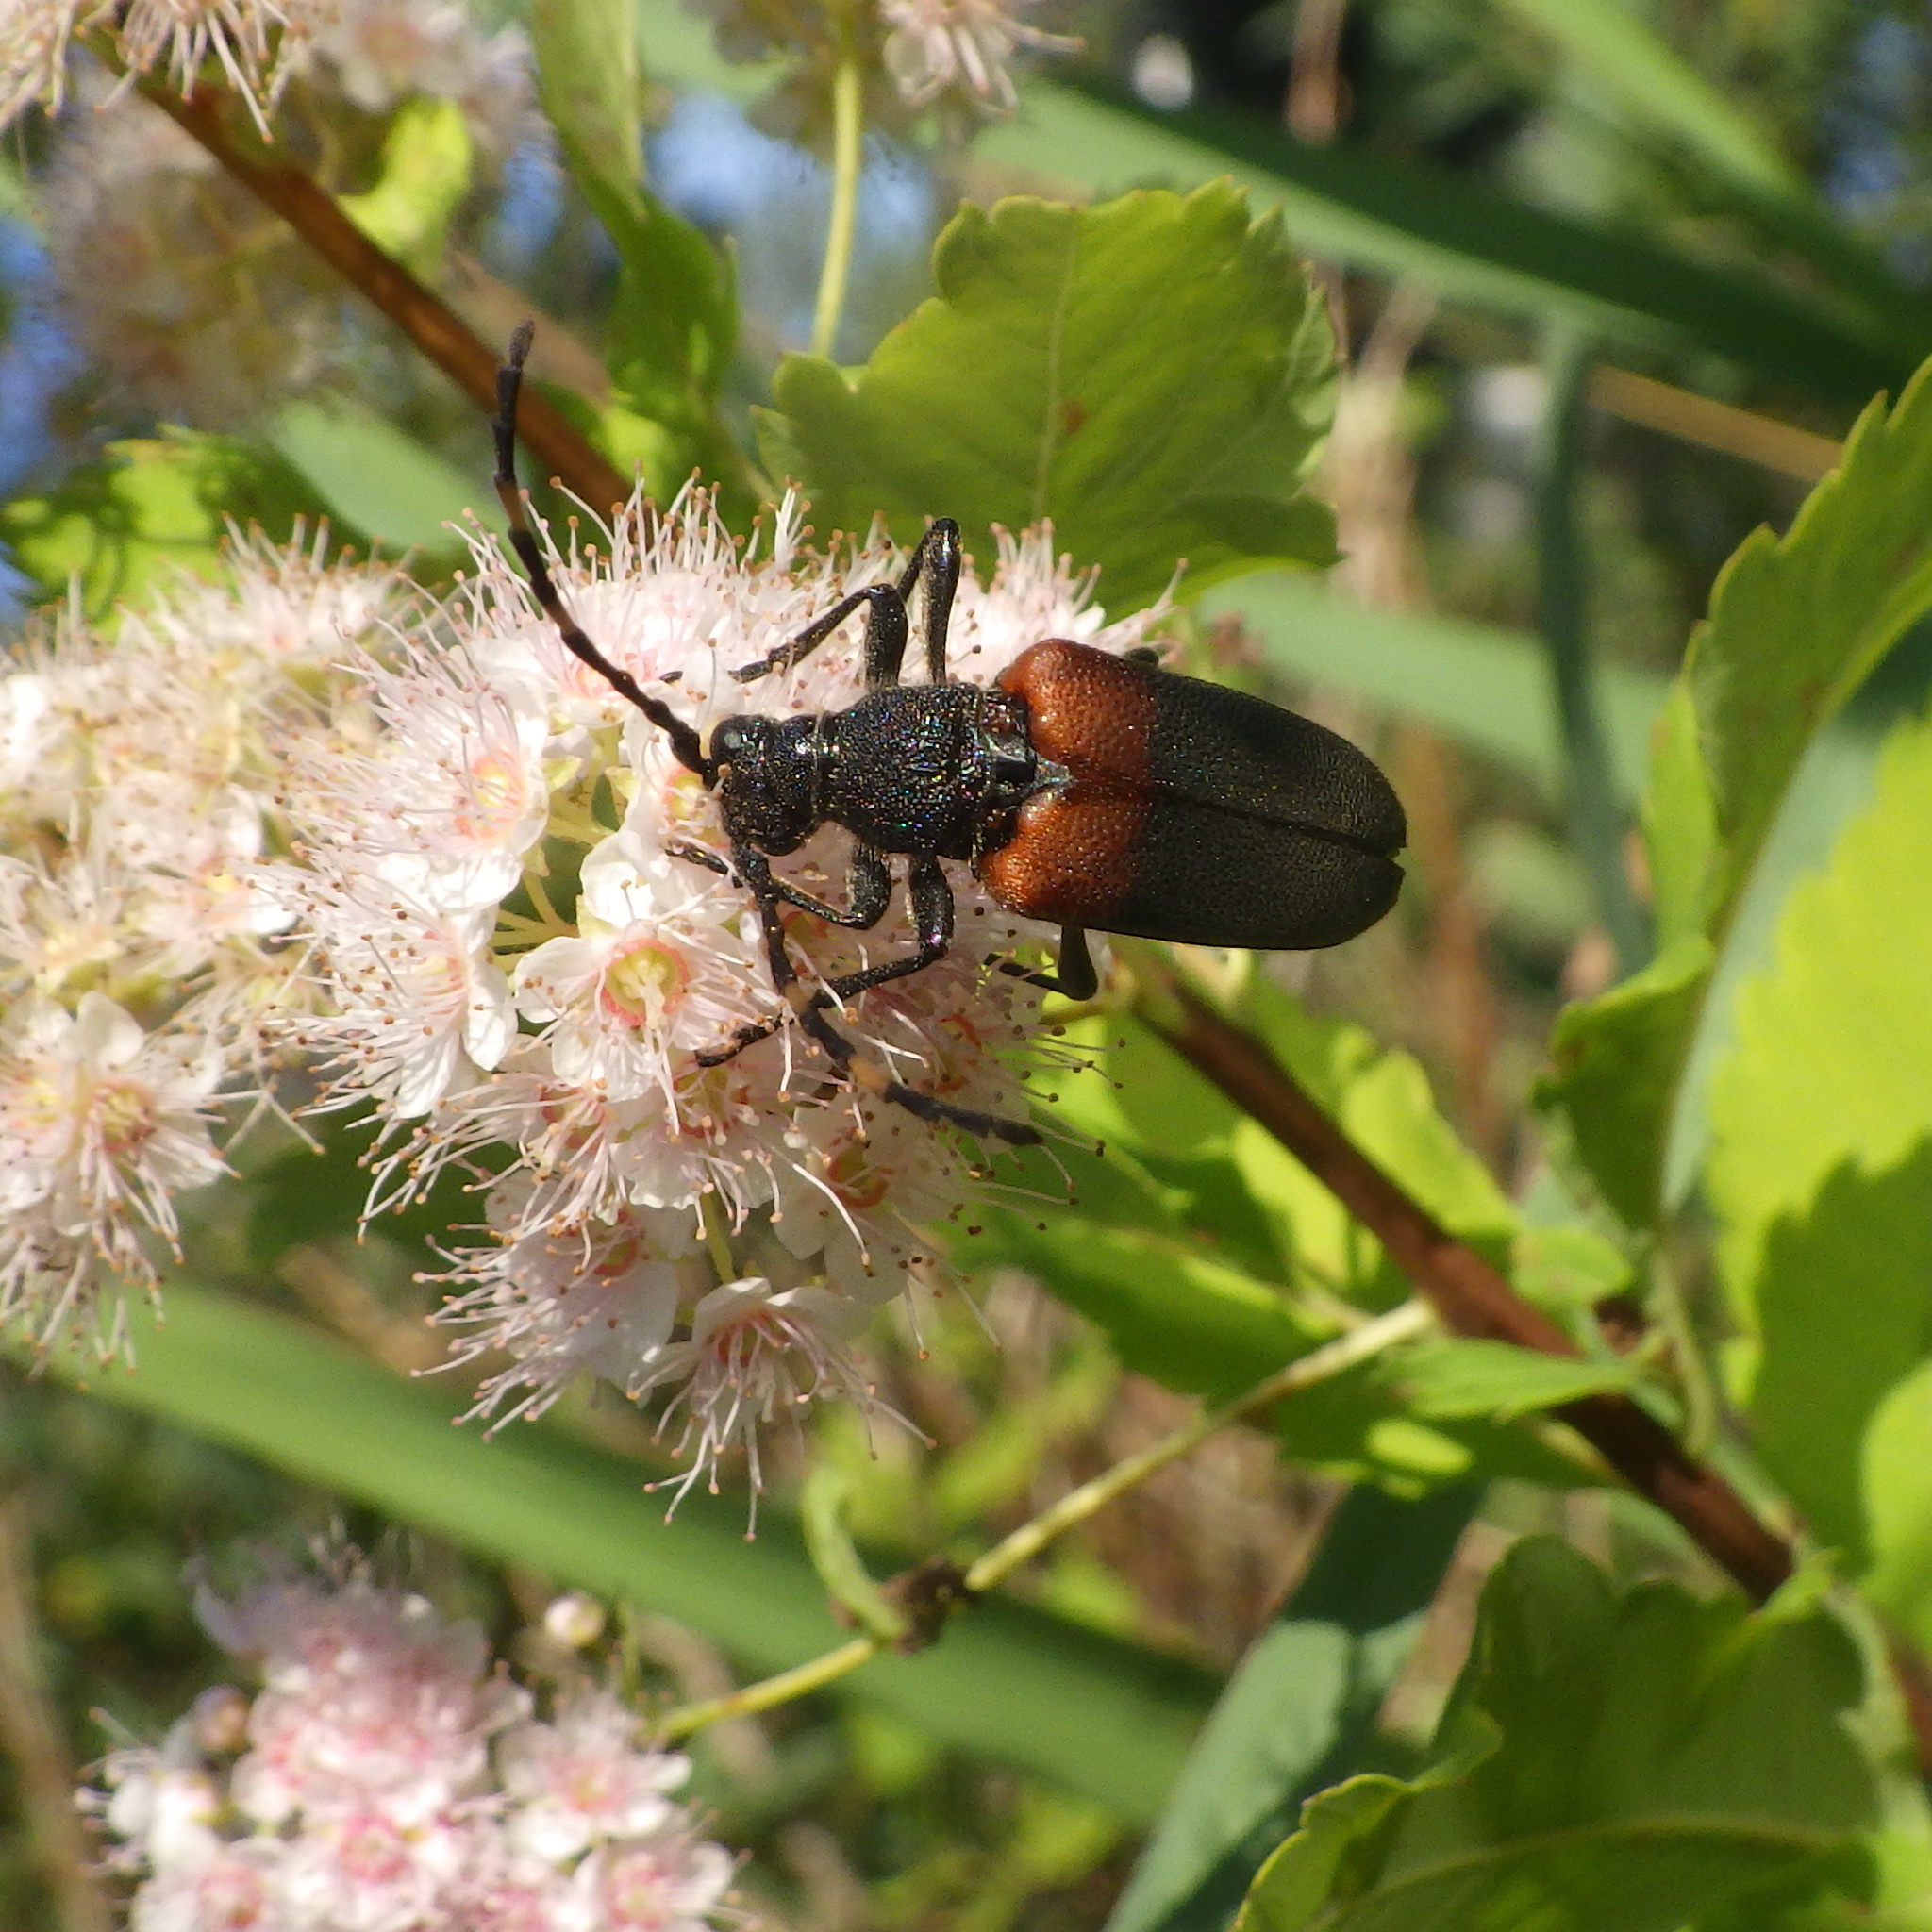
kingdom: Animalia
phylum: Arthropoda
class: Insecta
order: Coleoptera
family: Cerambycidae
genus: Stictoleptura
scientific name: Stictoleptura canadensis
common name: Red-shouldered pine borer
